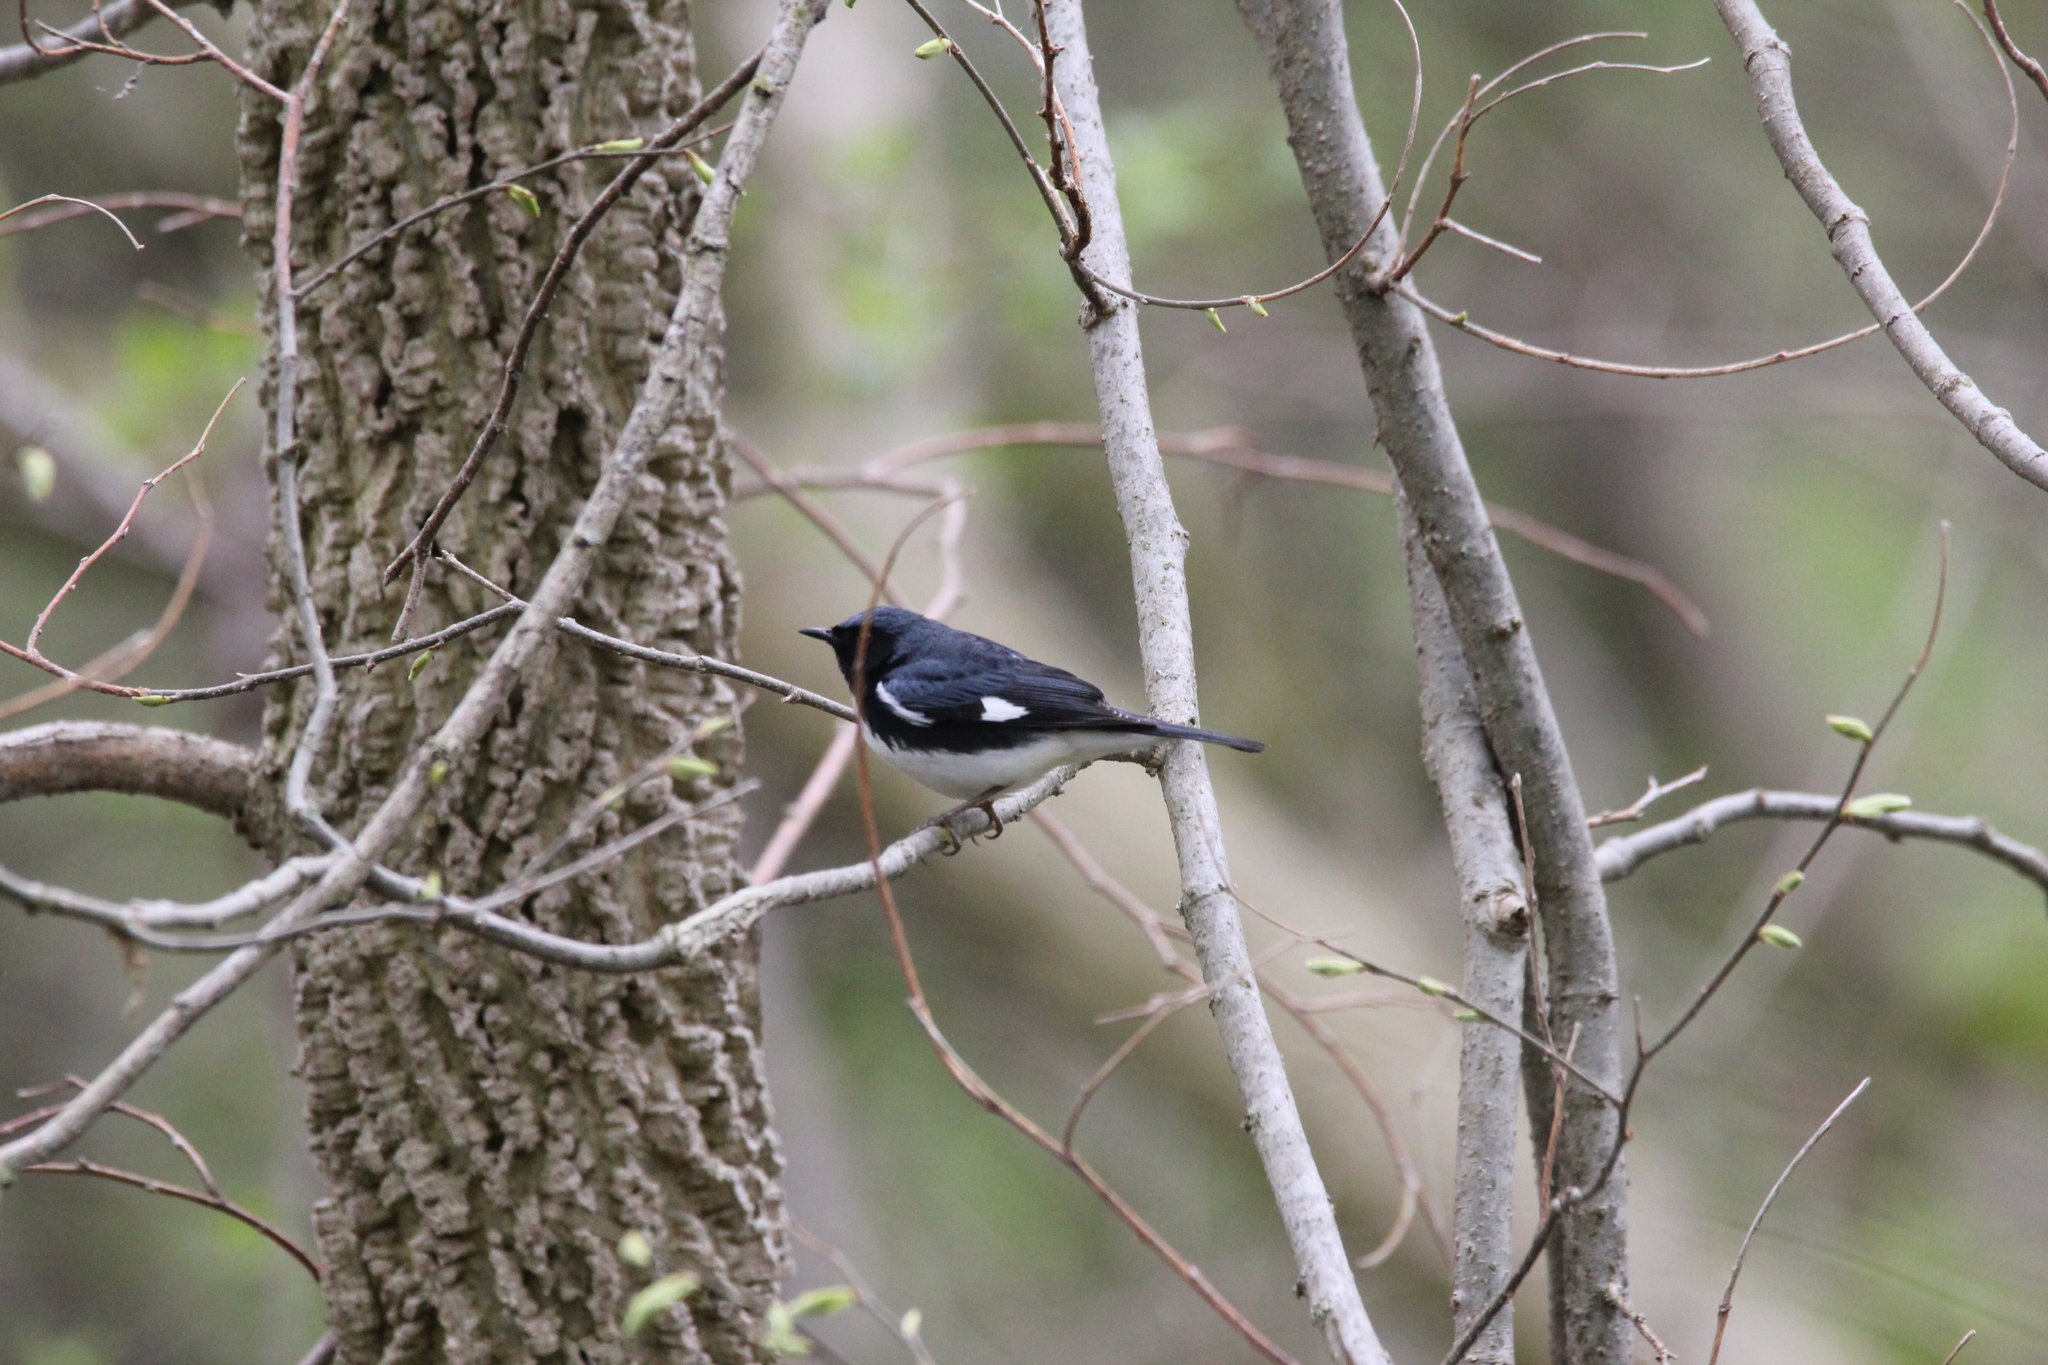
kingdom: Animalia
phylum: Chordata
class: Aves
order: Passeriformes
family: Parulidae
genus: Setophaga
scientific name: Setophaga caerulescens
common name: Black-throated blue warbler
